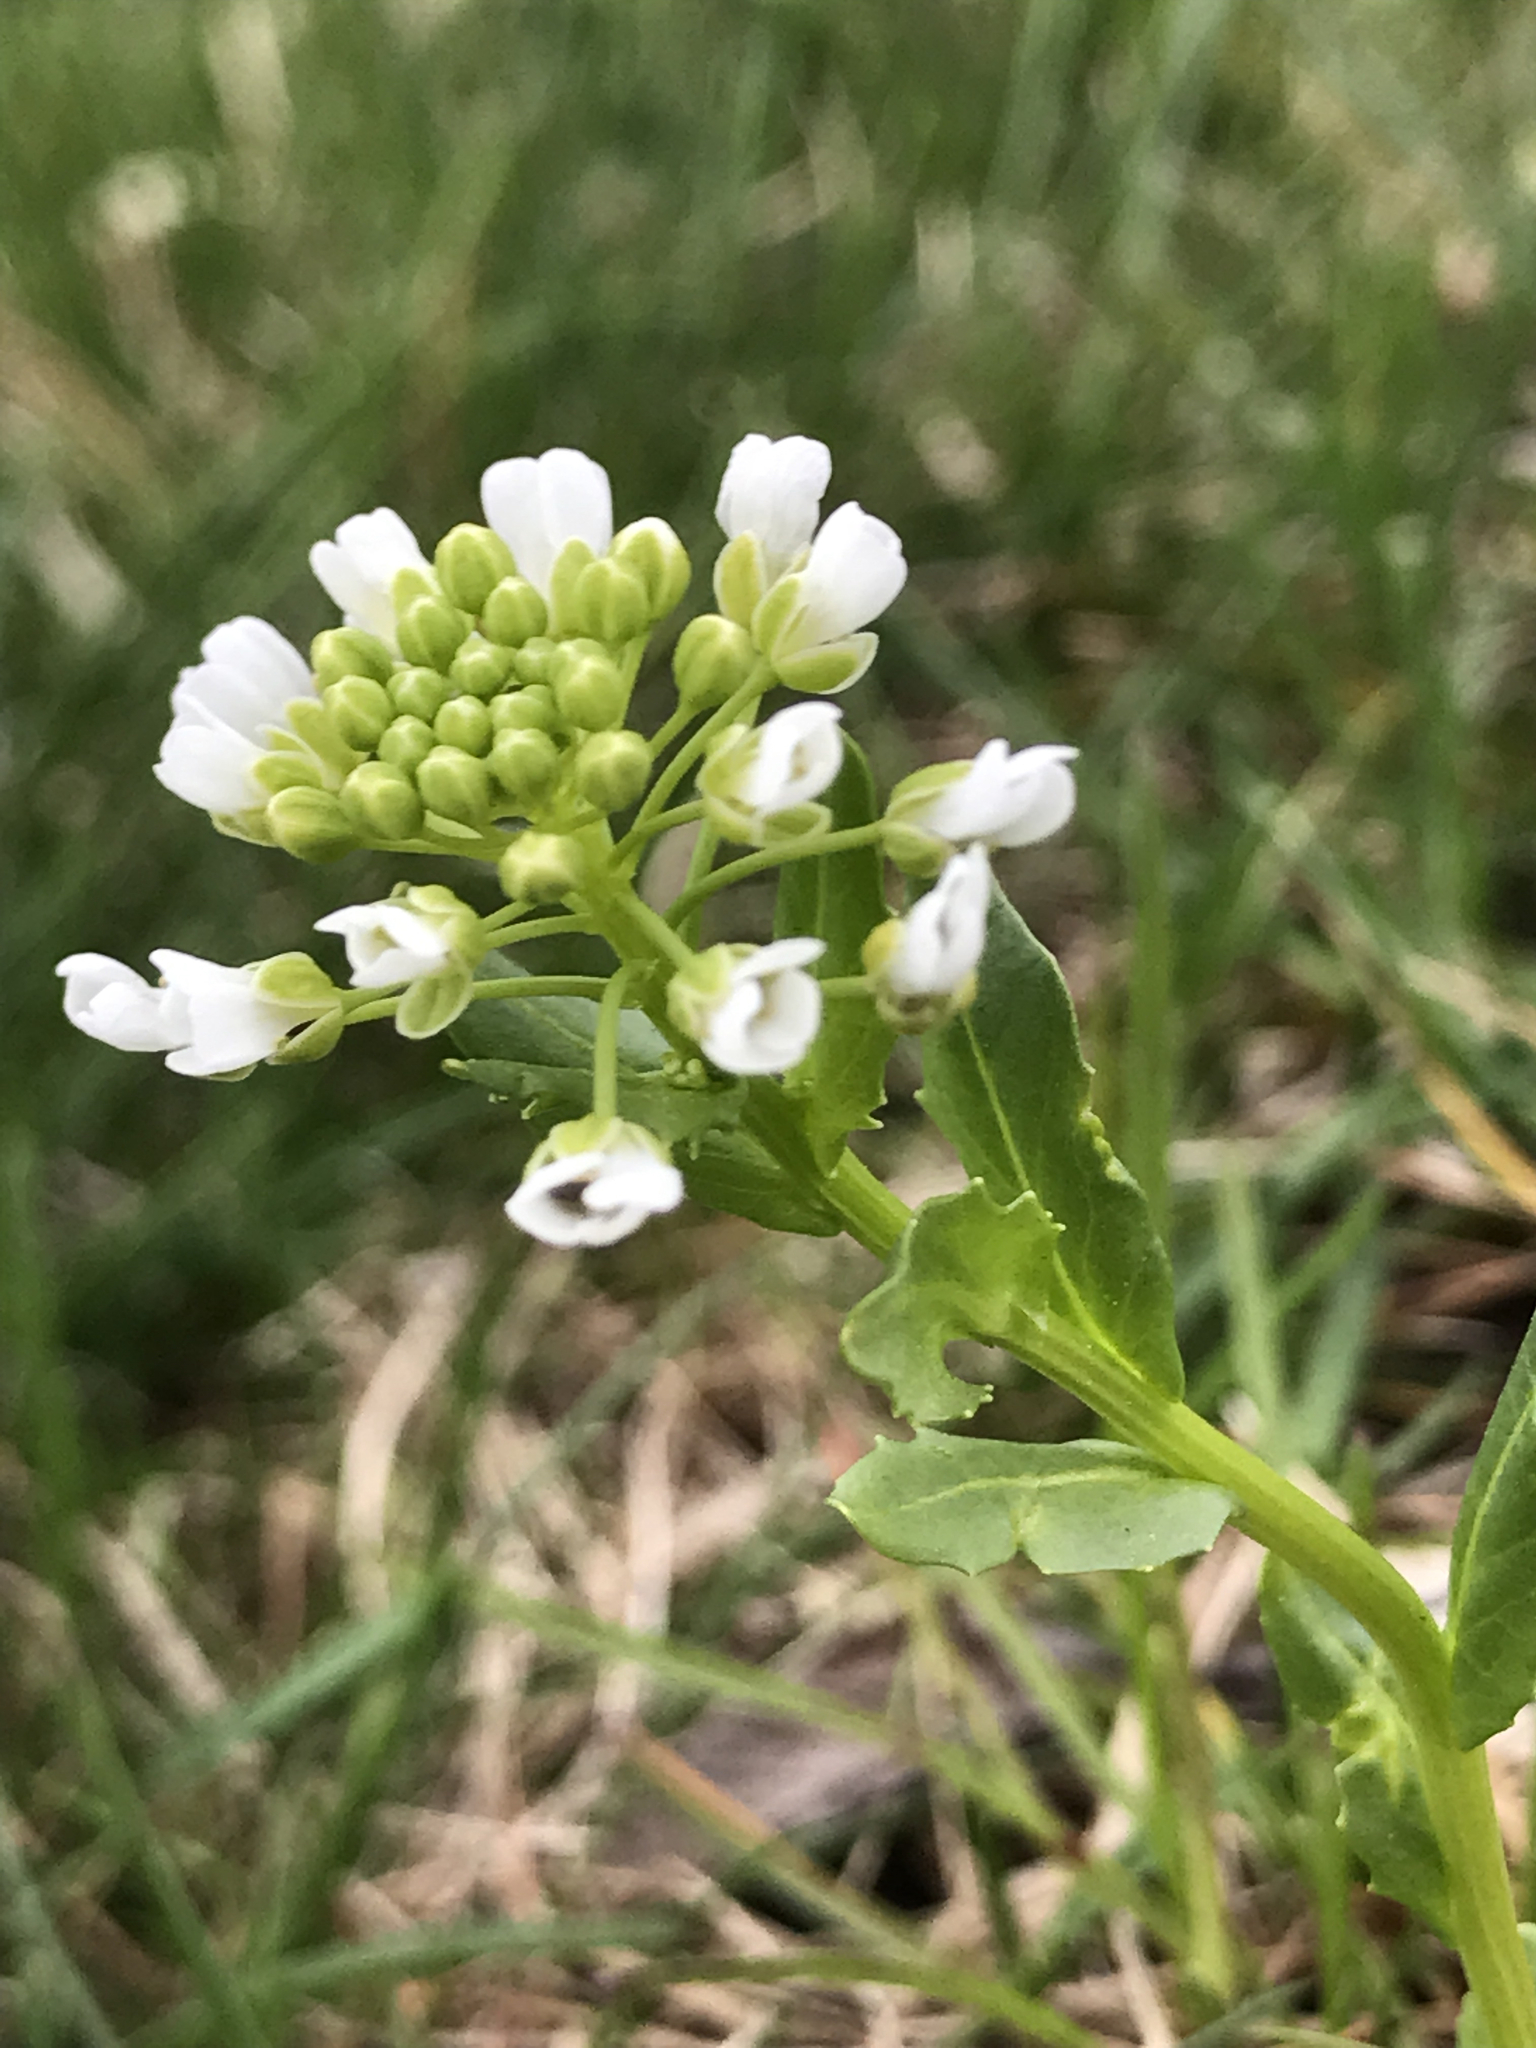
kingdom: Plantae
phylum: Tracheophyta
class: Magnoliopsida
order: Brassicales
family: Brassicaceae
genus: Thlaspi
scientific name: Thlaspi arvense
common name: Field pennycress
